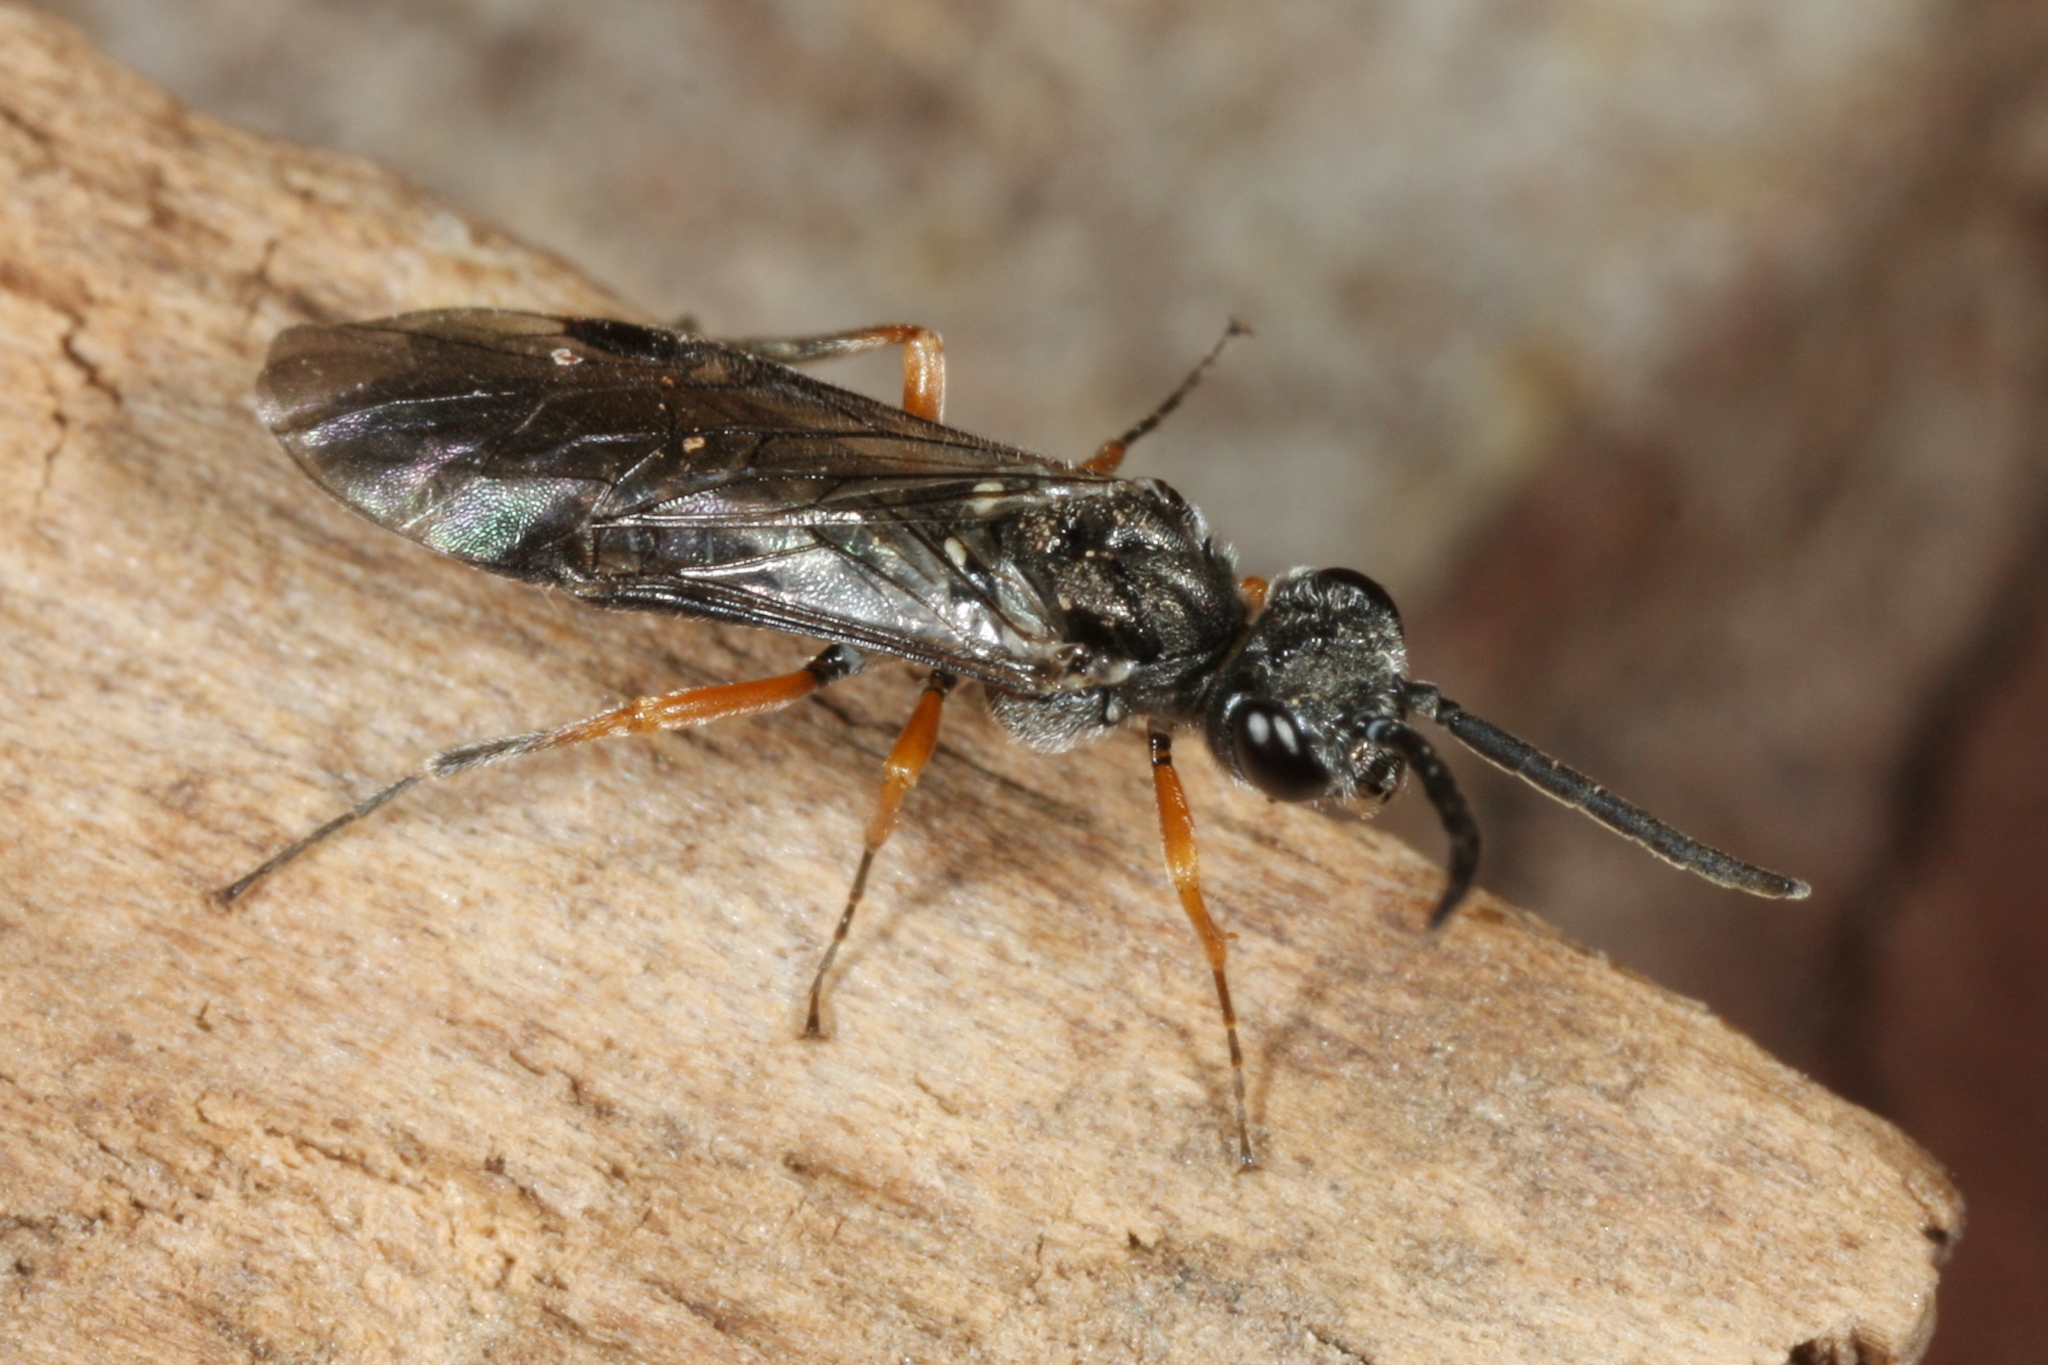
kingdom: Animalia
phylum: Arthropoda
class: Insecta
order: Hymenoptera
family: Tenthredinidae
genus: Dolerus
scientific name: Dolerus vestigialis
